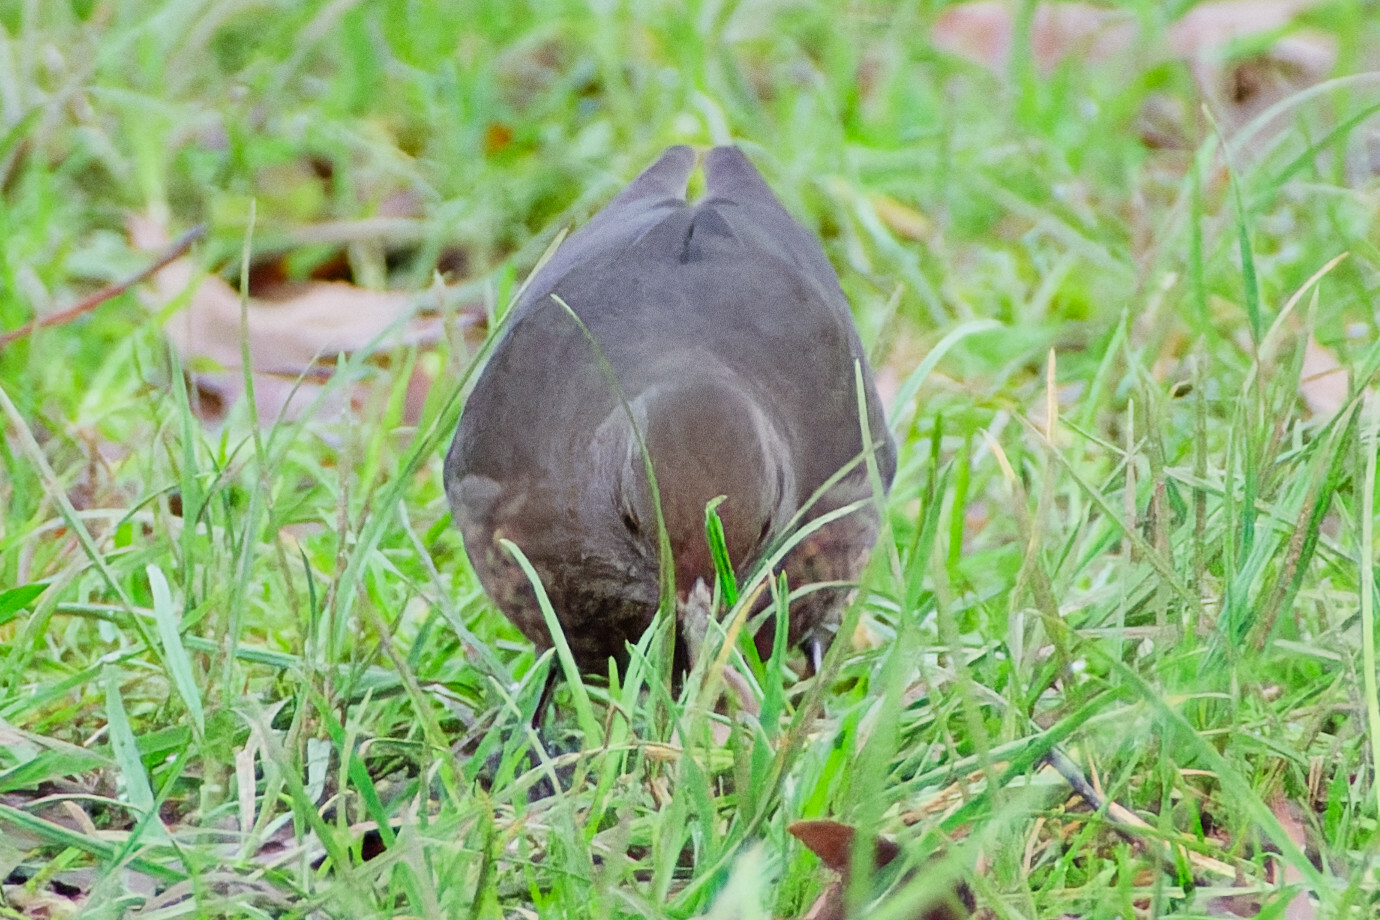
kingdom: Animalia
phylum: Chordata
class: Aves
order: Passeriformes
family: Turdidae
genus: Turdus
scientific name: Turdus merula
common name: Common blackbird
